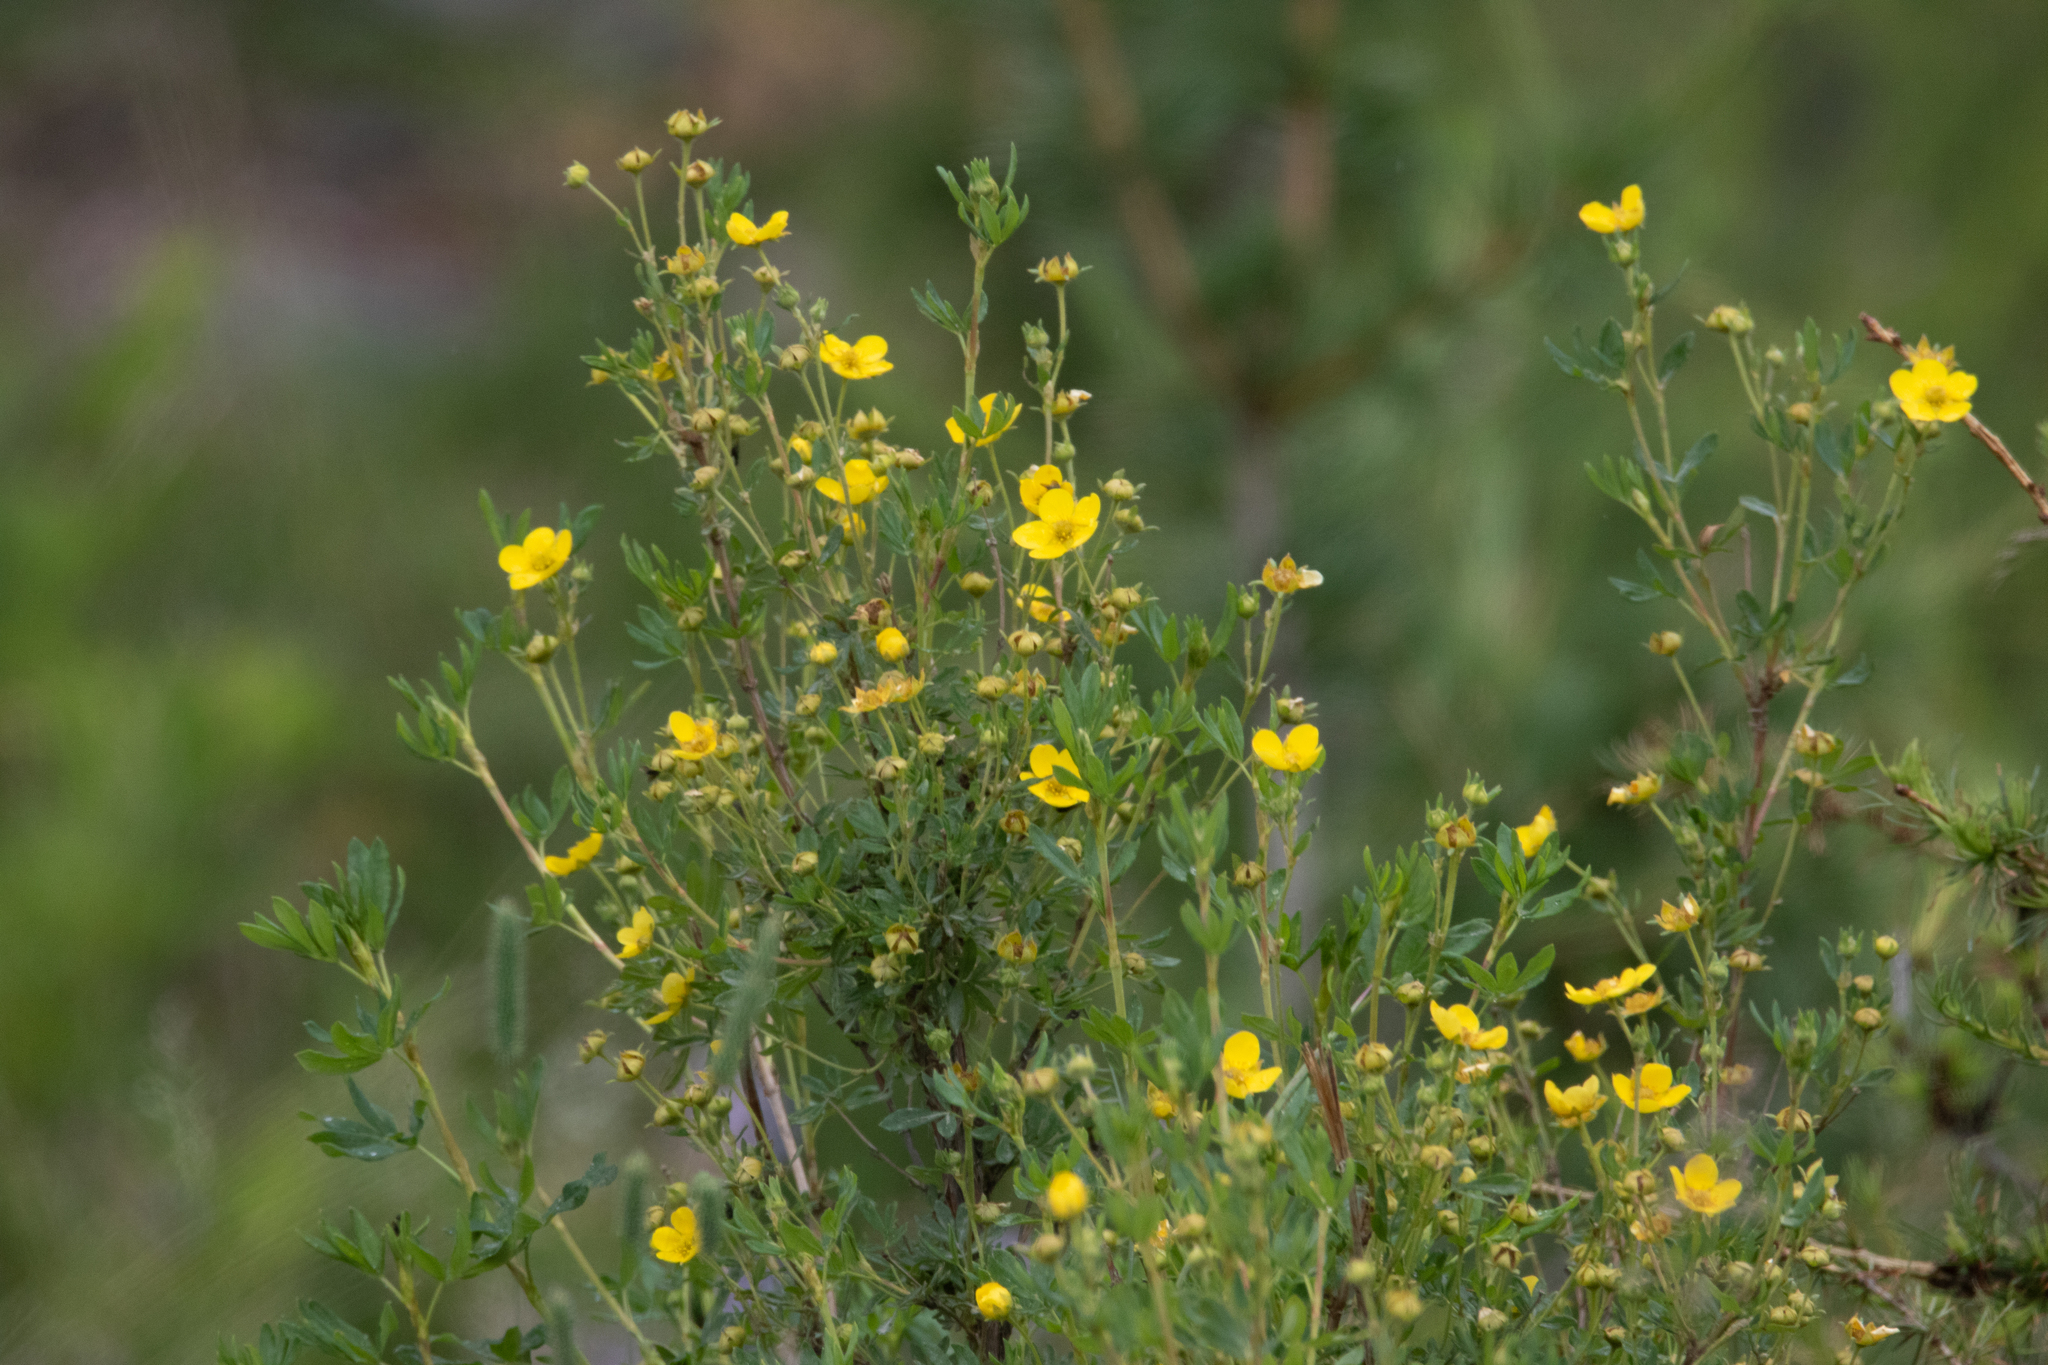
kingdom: Plantae
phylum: Tracheophyta
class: Magnoliopsida
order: Rosales
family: Rosaceae
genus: Dasiphora
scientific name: Dasiphora fruticosa
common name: Shrubby cinquefoil
